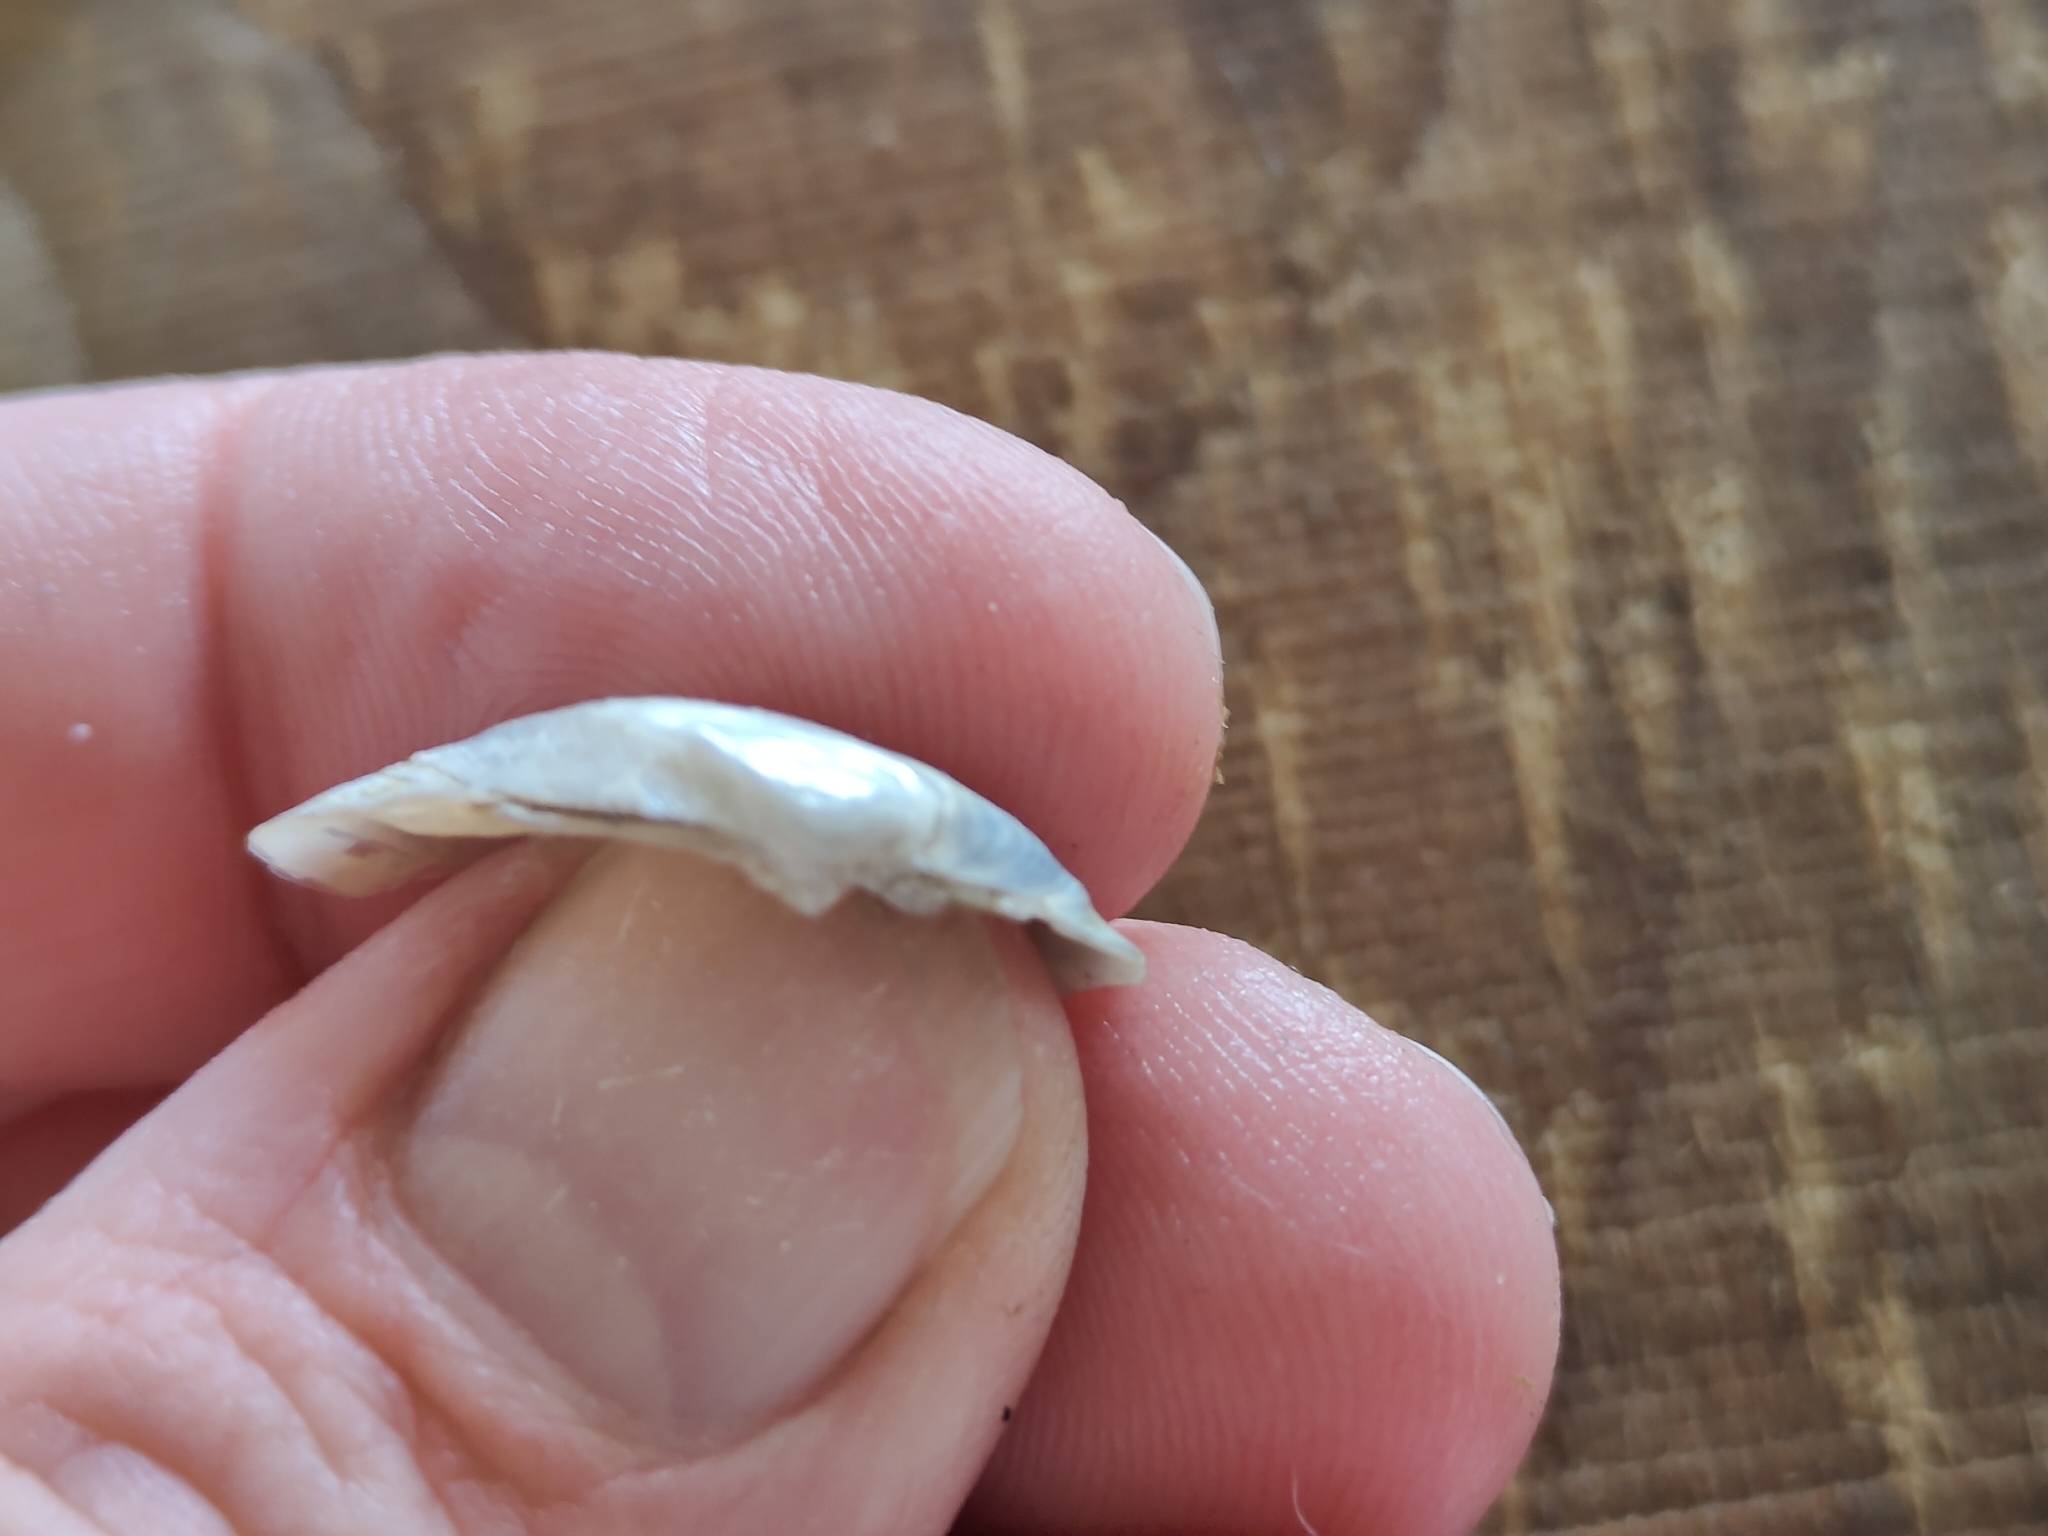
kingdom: Animalia
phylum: Mollusca
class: Bivalvia
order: Unionida
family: Unionidae
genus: Truncilla
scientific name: Truncilla donaciformis
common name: Fawnsfoot
